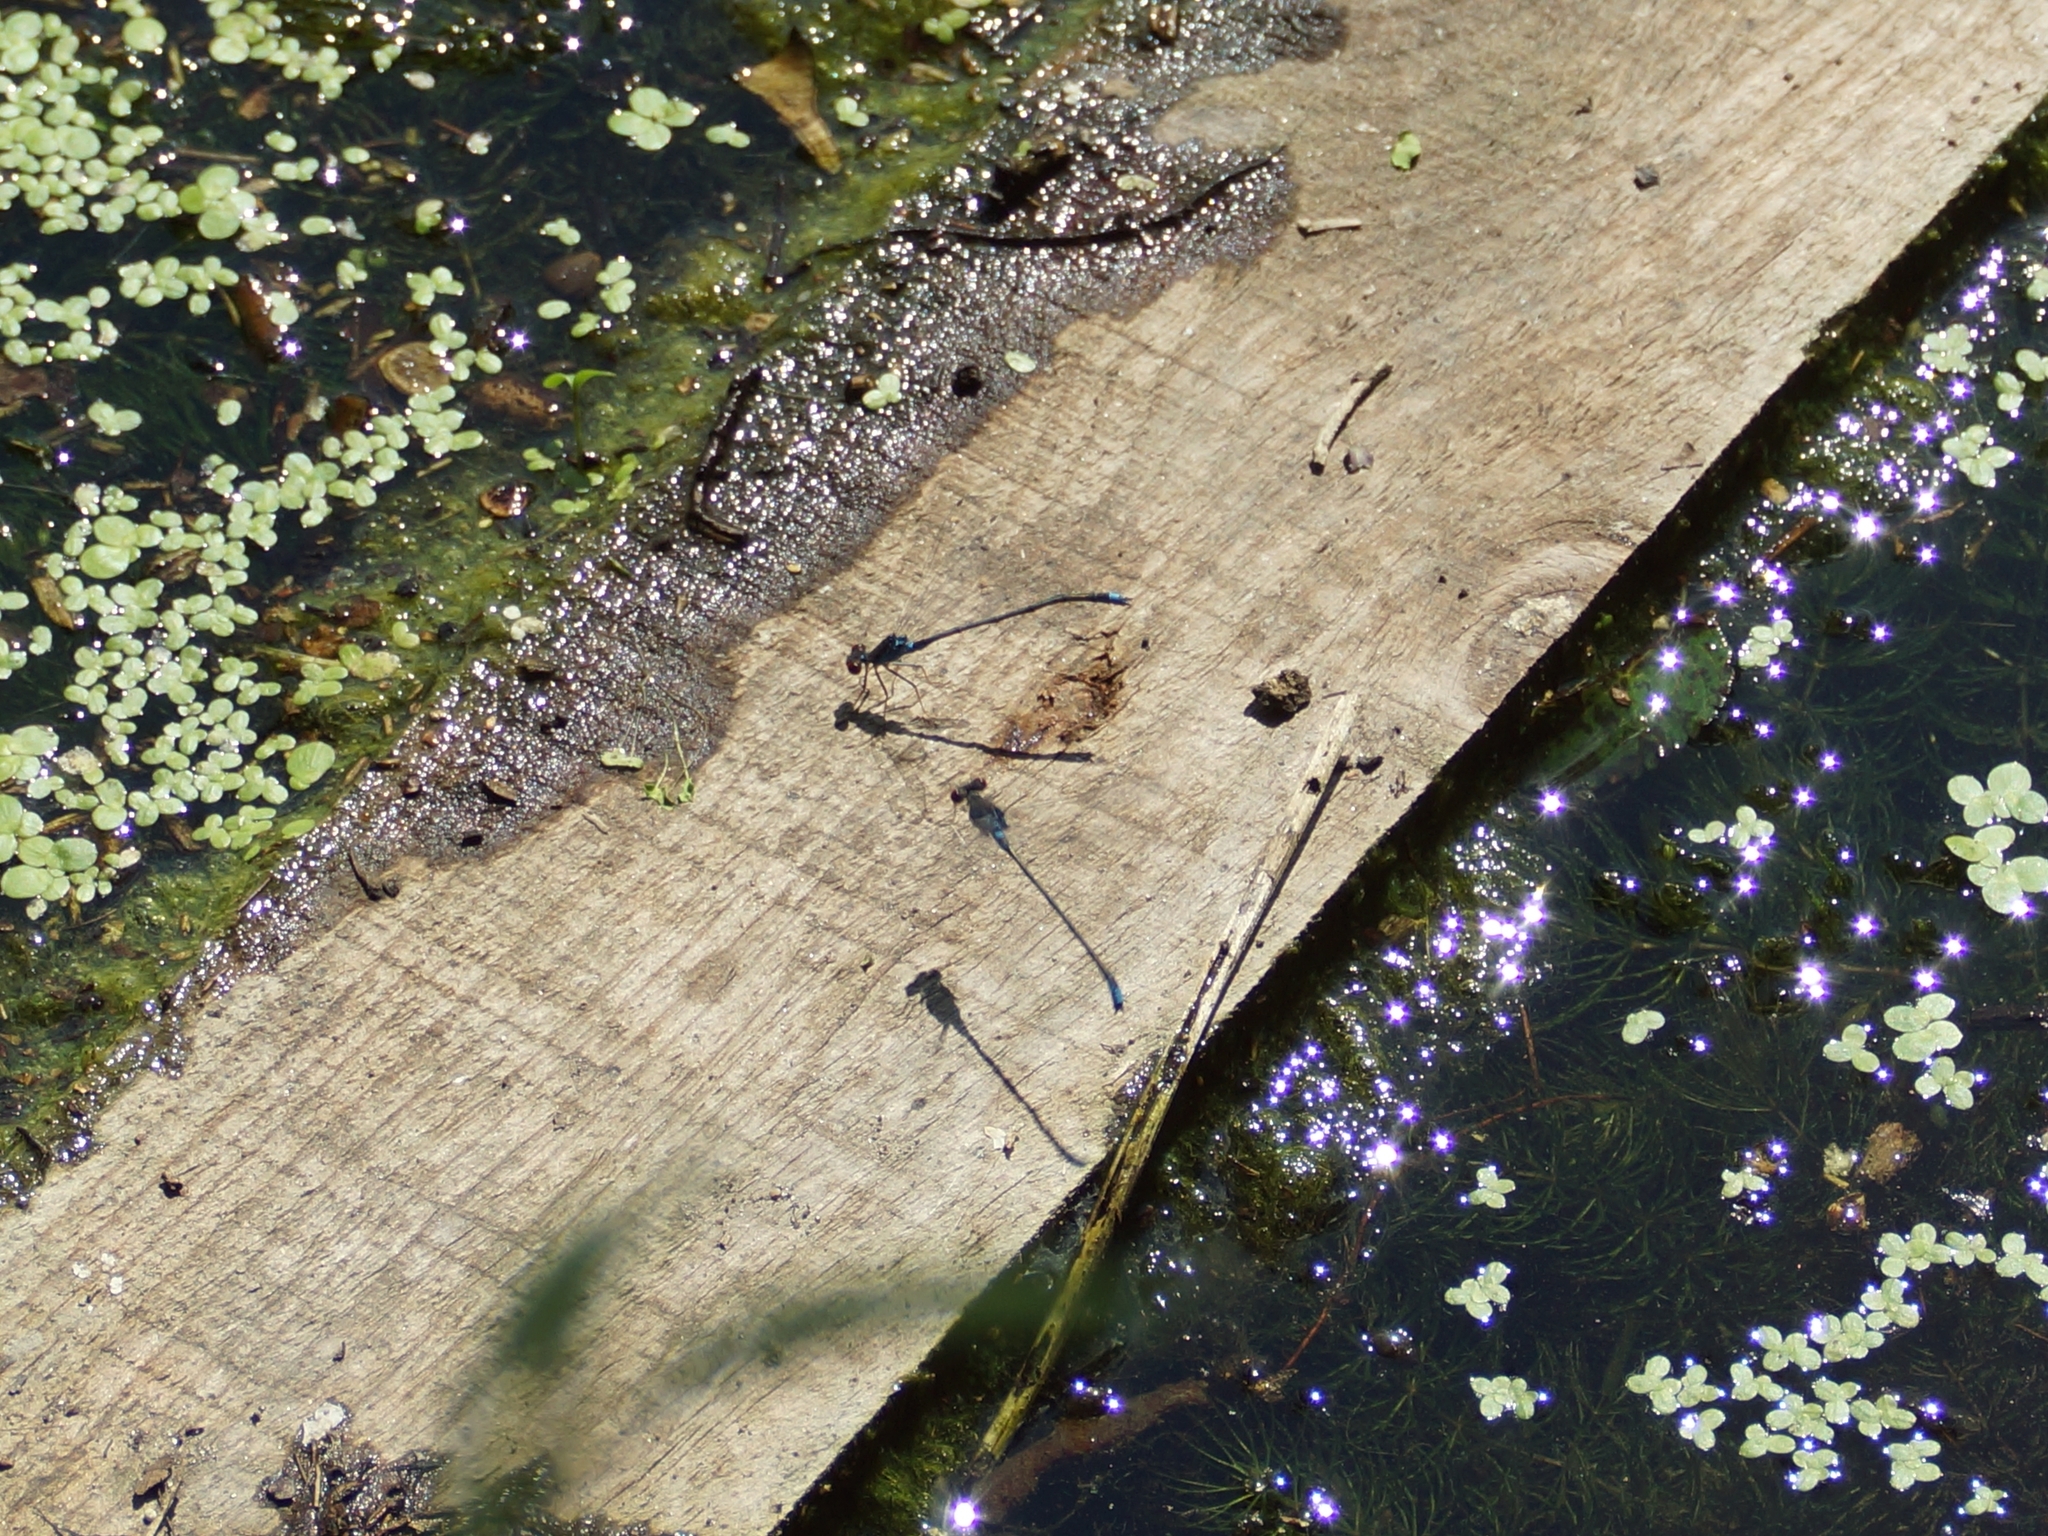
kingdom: Animalia
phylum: Arthropoda
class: Insecta
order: Odonata
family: Coenagrionidae
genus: Erythromma
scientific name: Erythromma viridulum
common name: Small red-eyed damselfly
